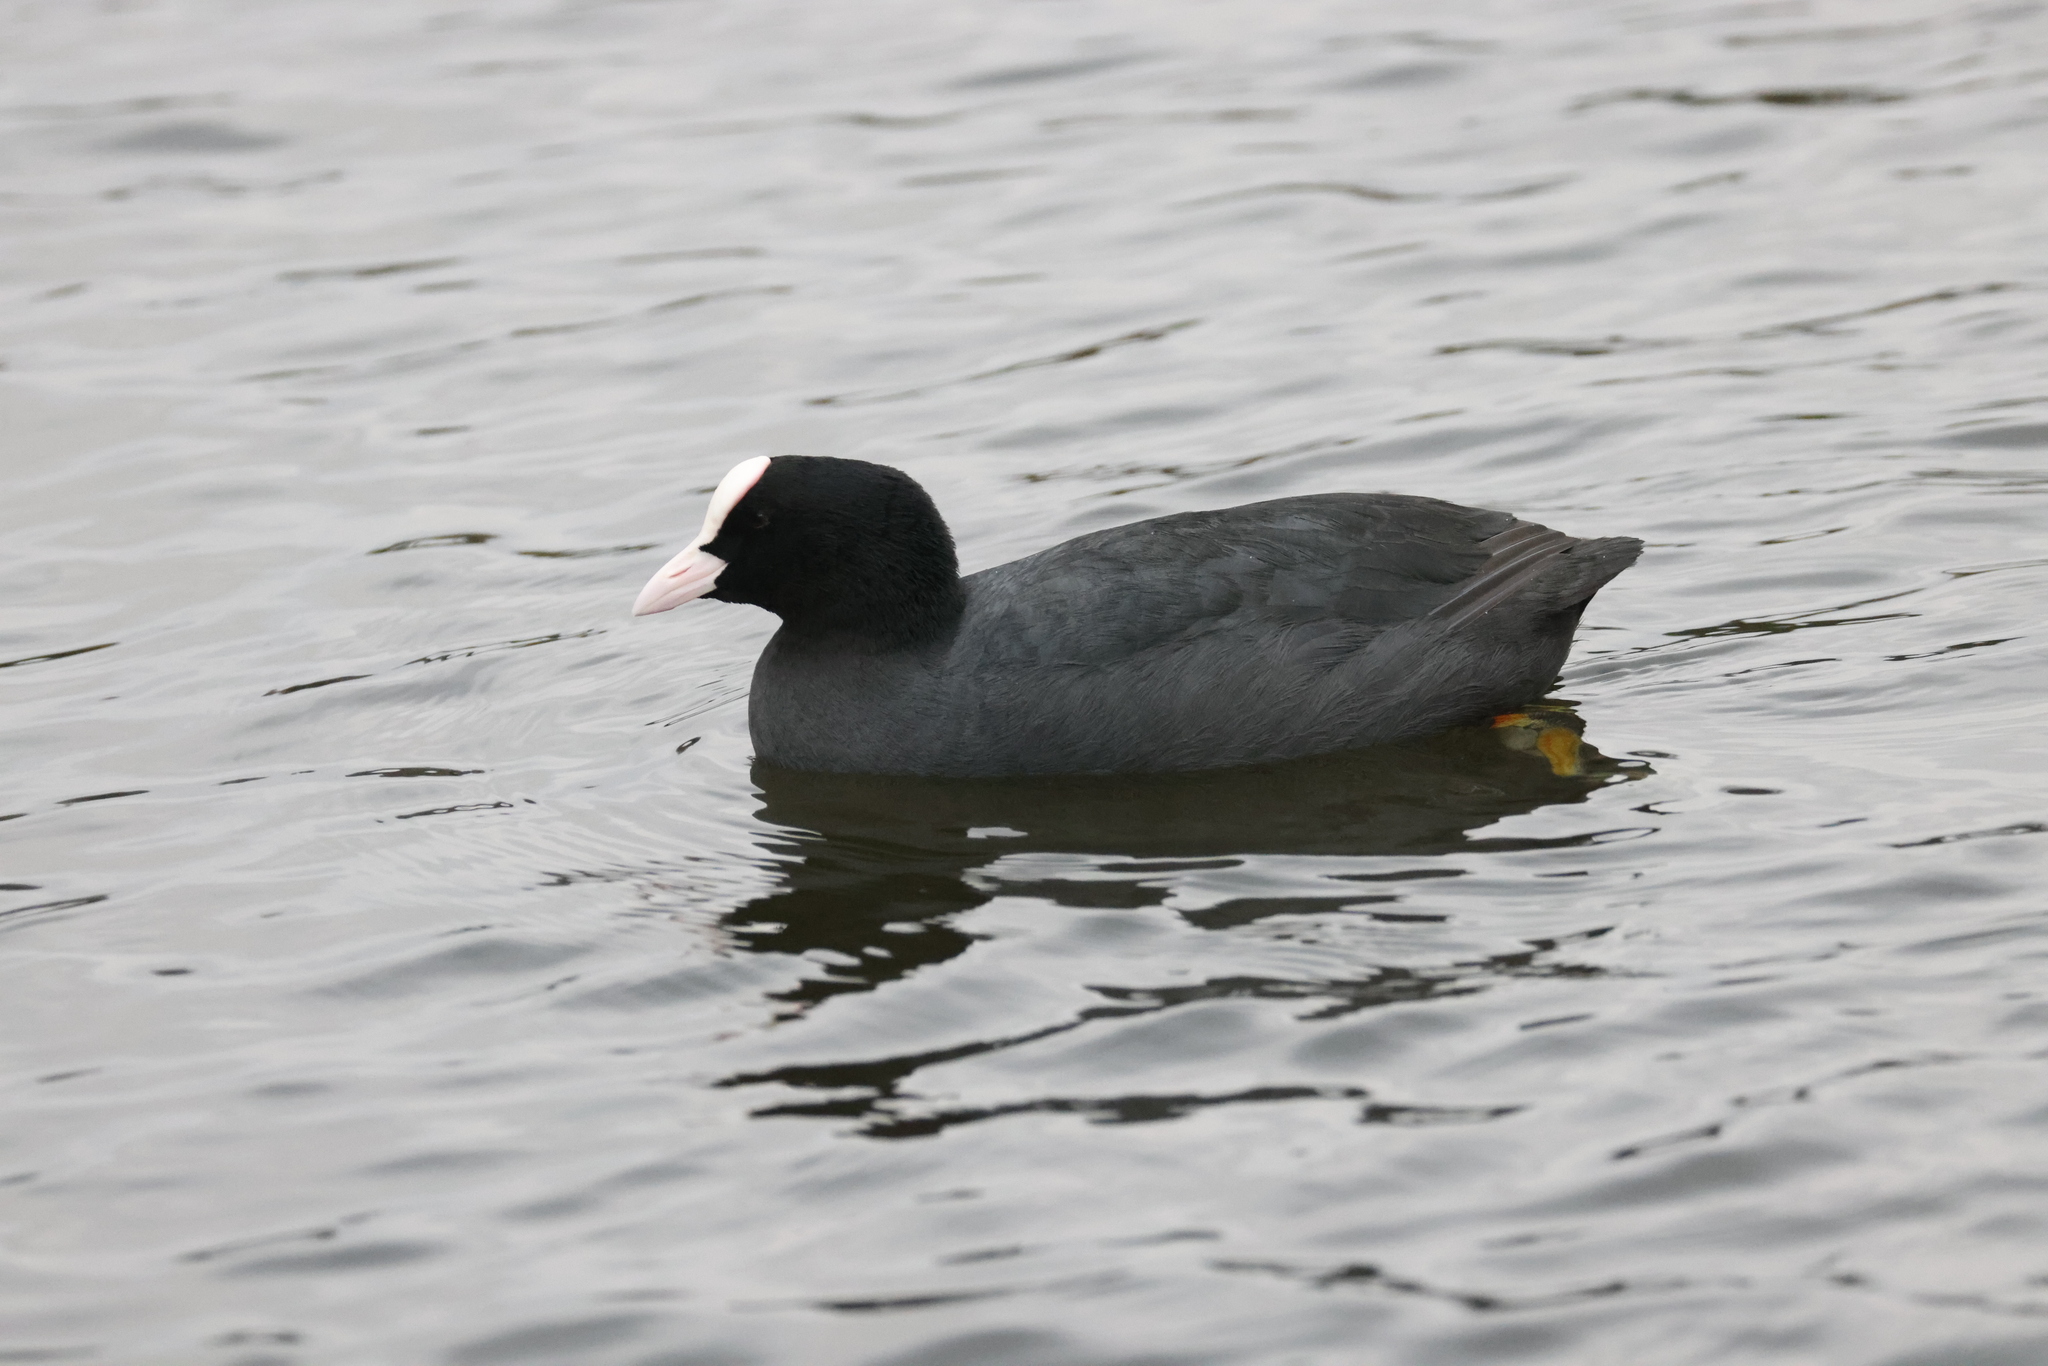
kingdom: Animalia
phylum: Chordata
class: Aves
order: Gruiformes
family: Rallidae
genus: Fulica
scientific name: Fulica atra
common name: Eurasian coot
